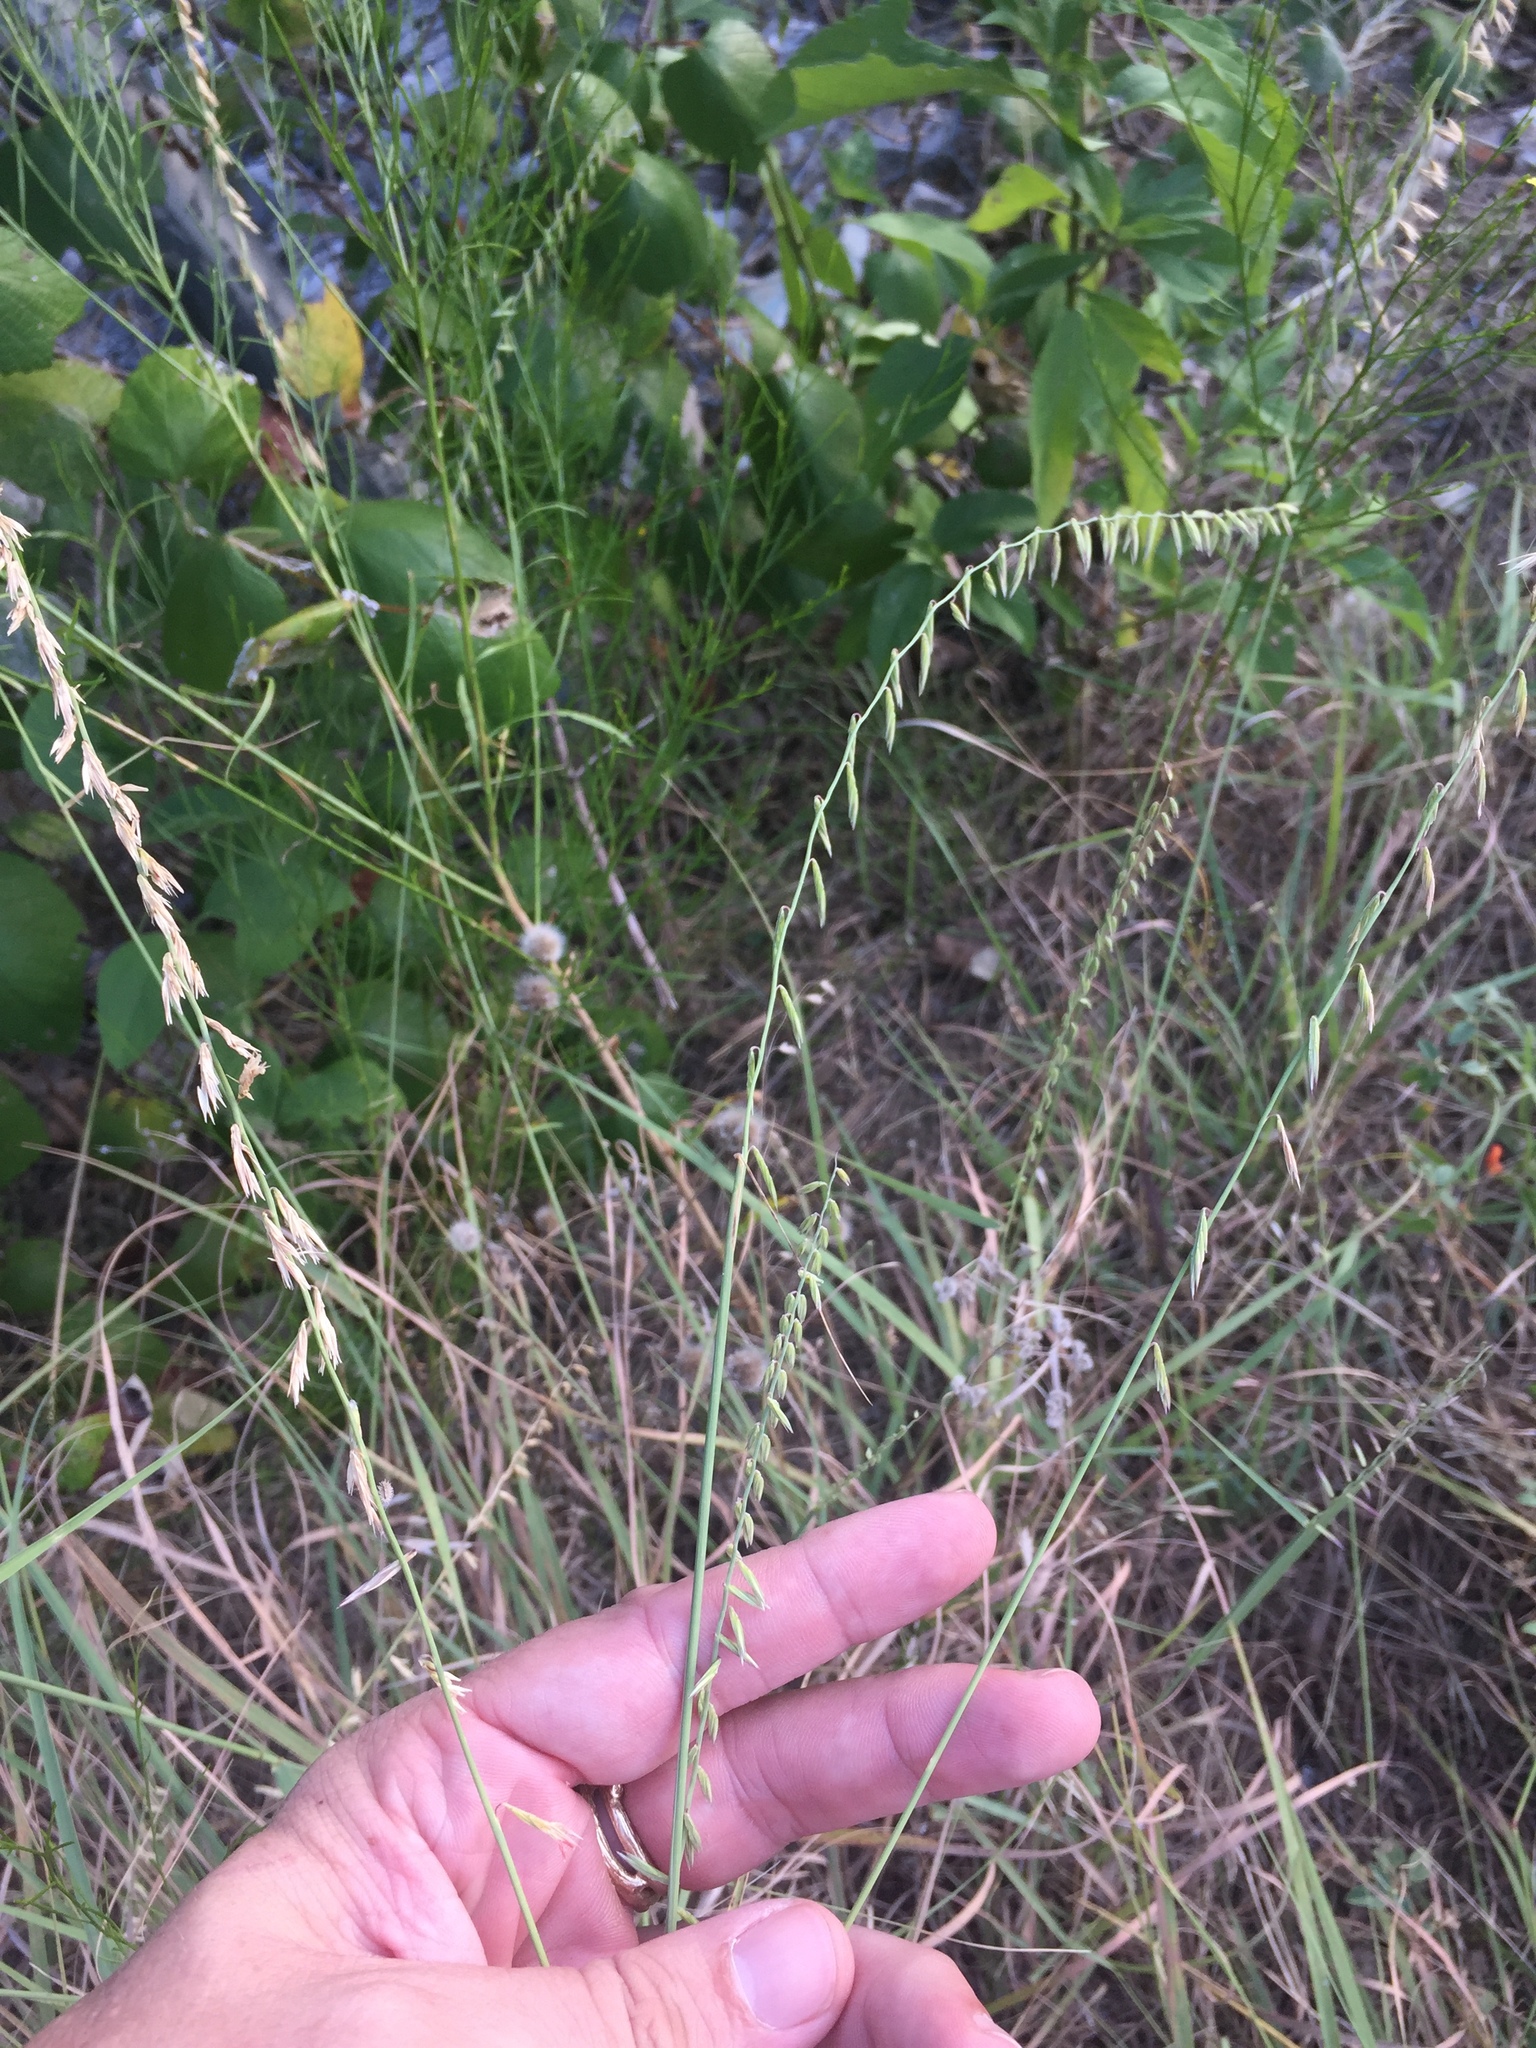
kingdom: Plantae
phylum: Tracheophyta
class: Liliopsida
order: Poales
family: Poaceae
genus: Bouteloua
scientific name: Bouteloua curtipendula
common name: Side-oats grama
